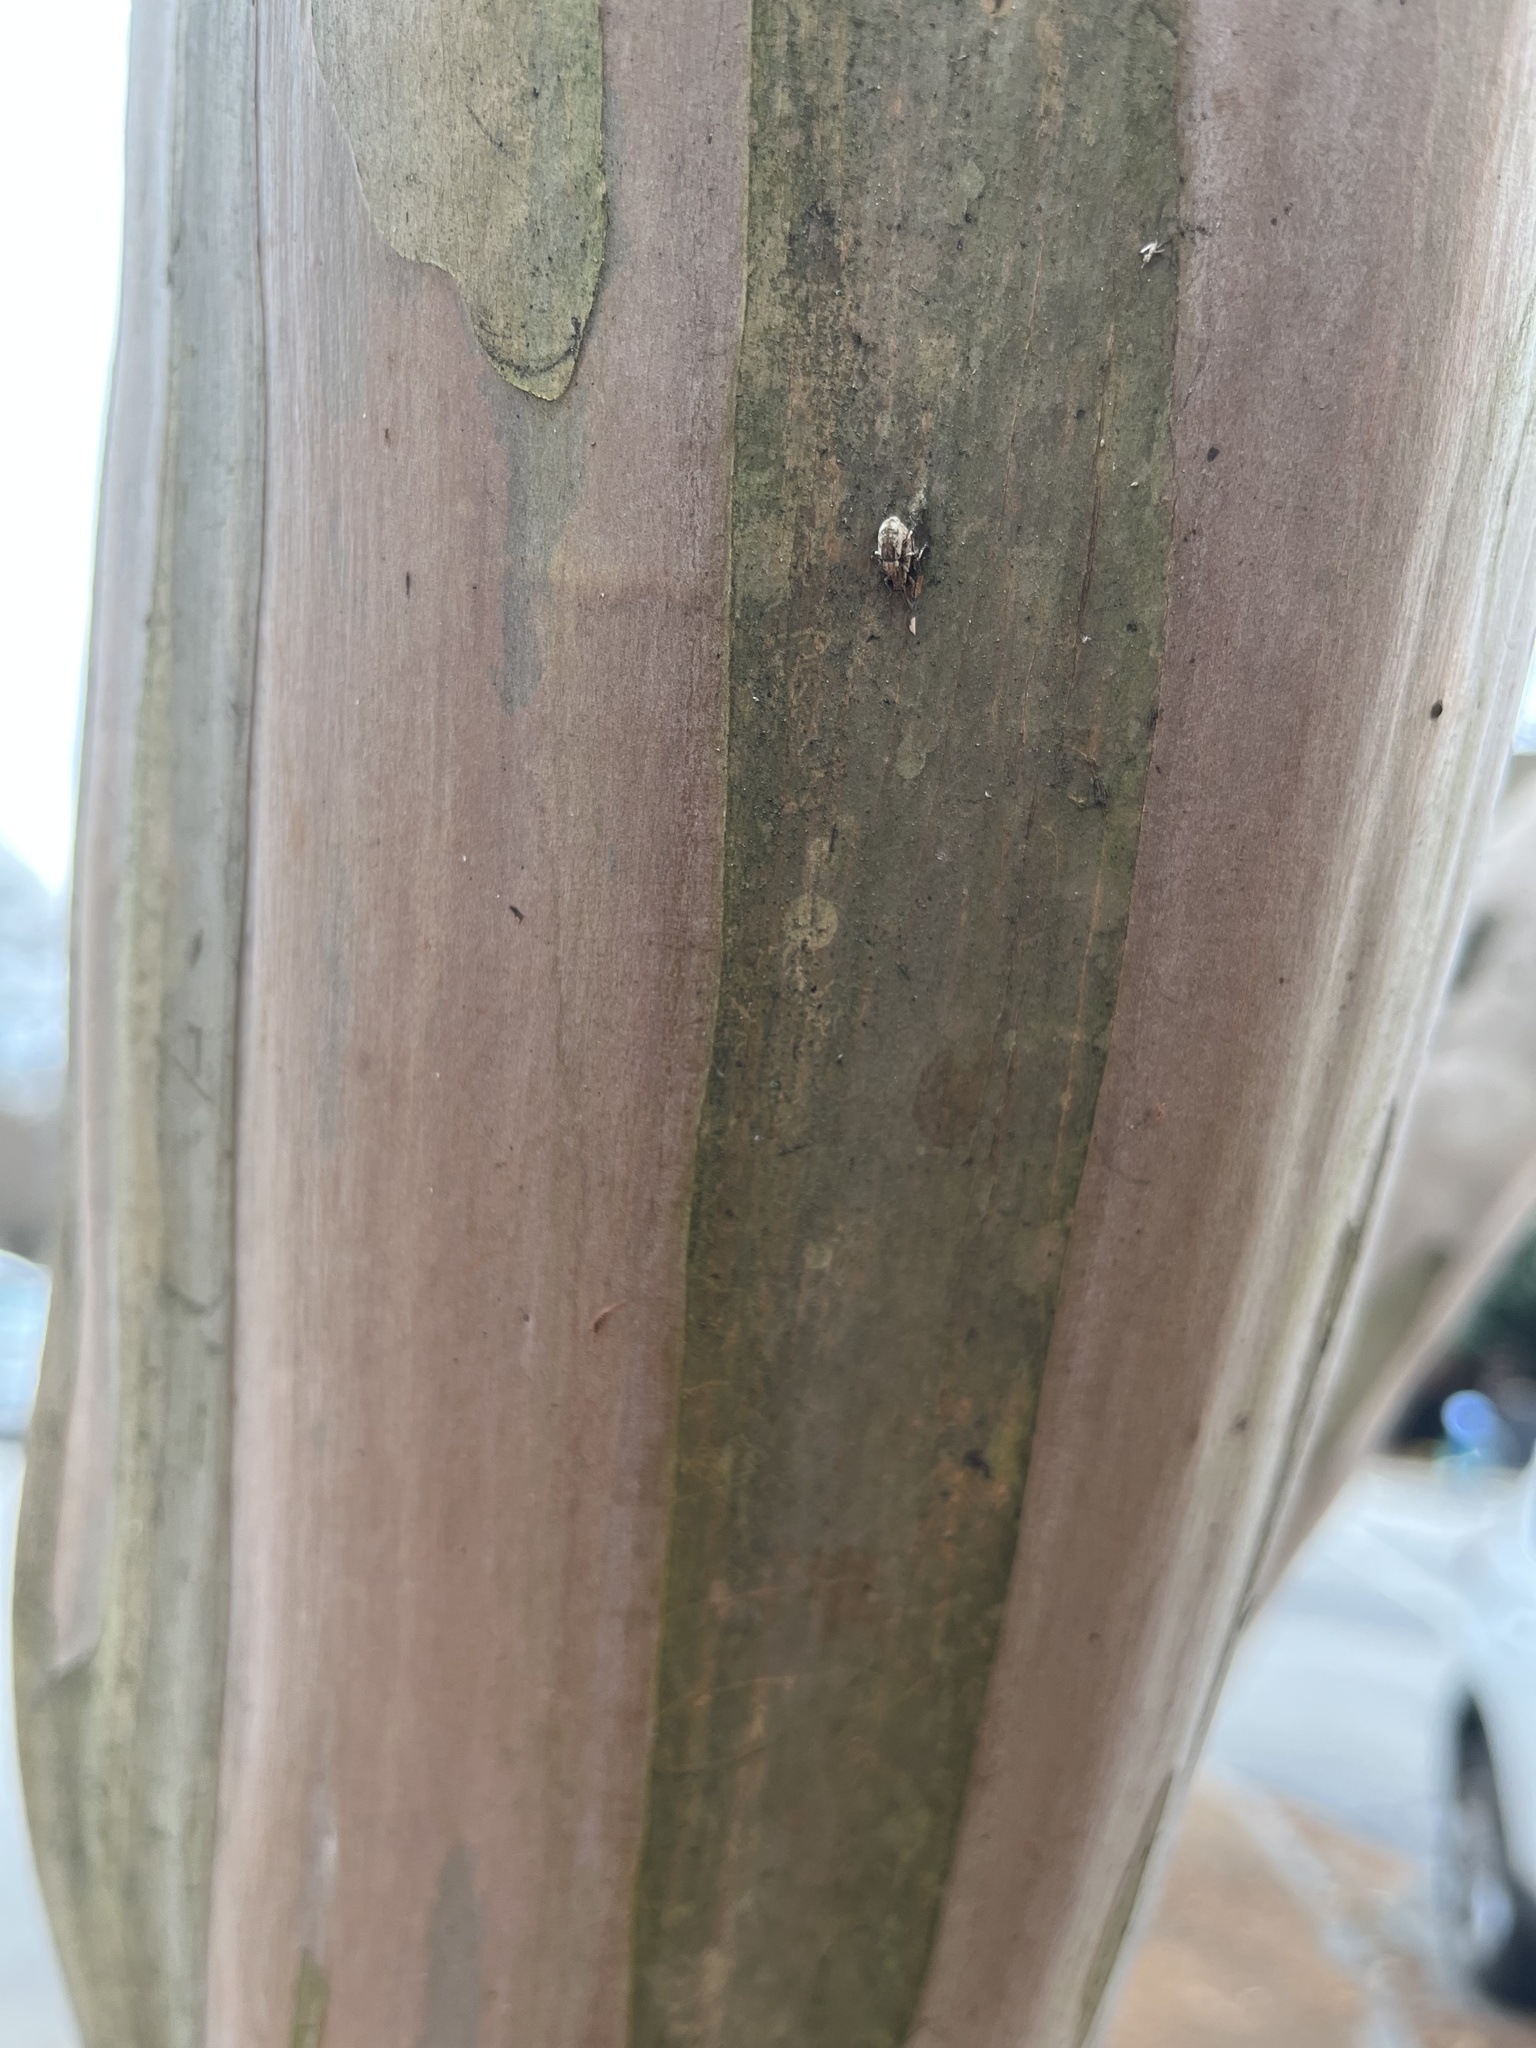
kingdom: Animalia
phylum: Arthropoda
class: Insecta
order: Coleoptera
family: Curculionidae
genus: Pseudoedophrys
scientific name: Pseudoedophrys hilleri
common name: Weevil
